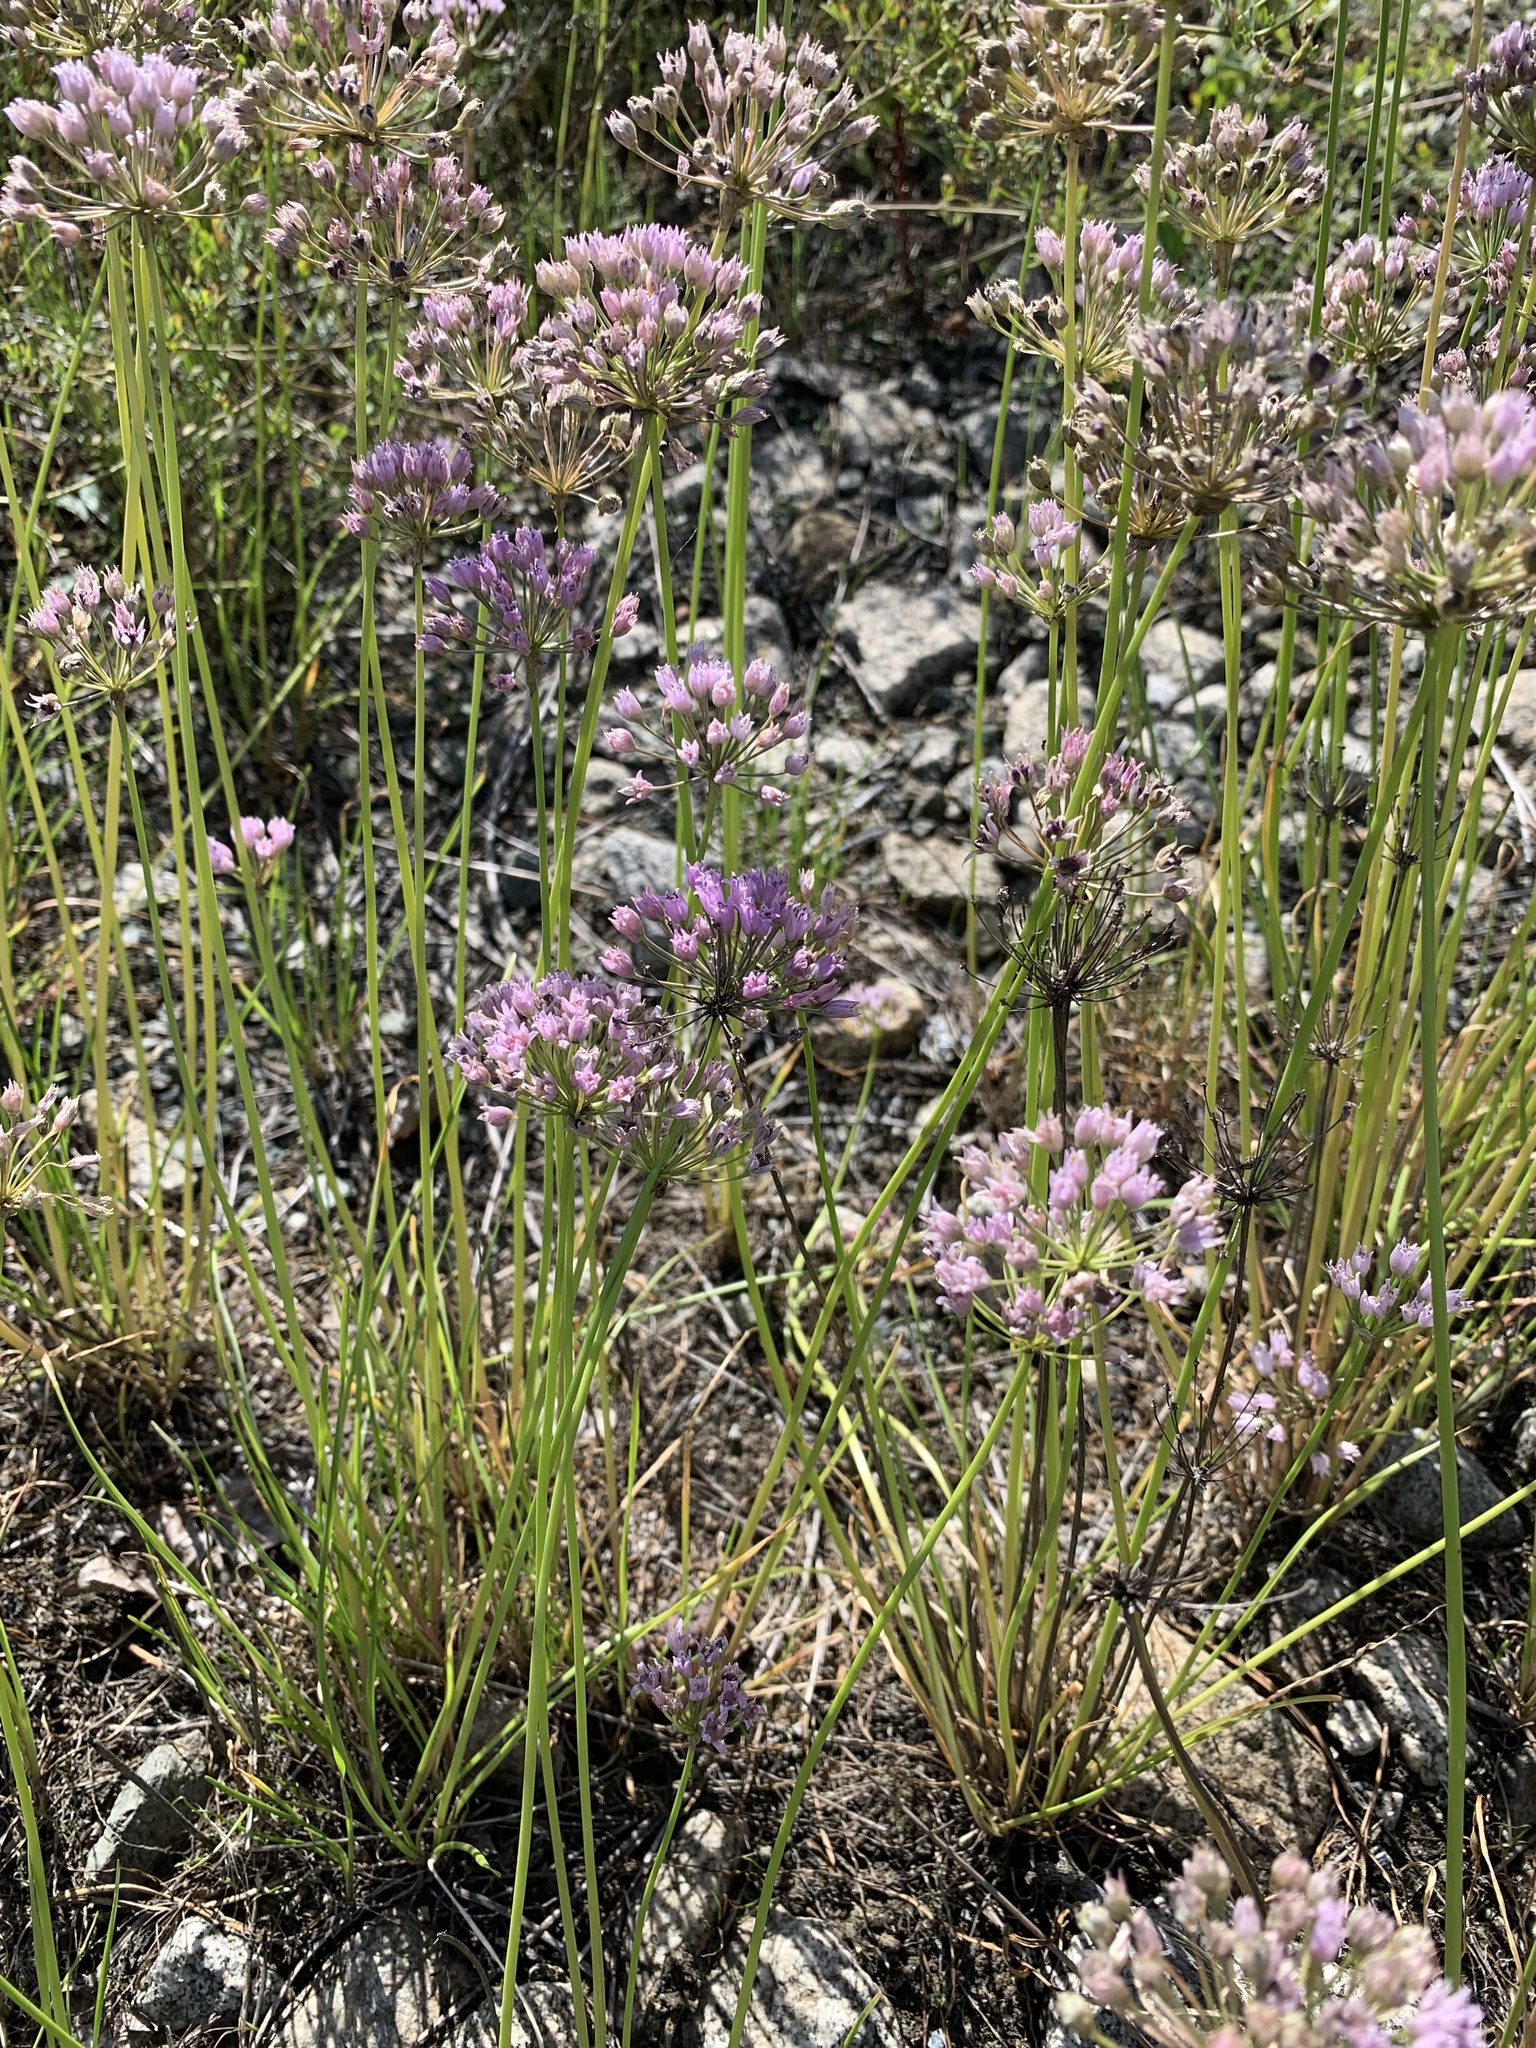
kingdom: Plantae
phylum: Tracheophyta
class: Liliopsida
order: Asparagales
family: Amaryllidaceae
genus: Allium
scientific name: Allium angulosum
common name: Mouse garlic
